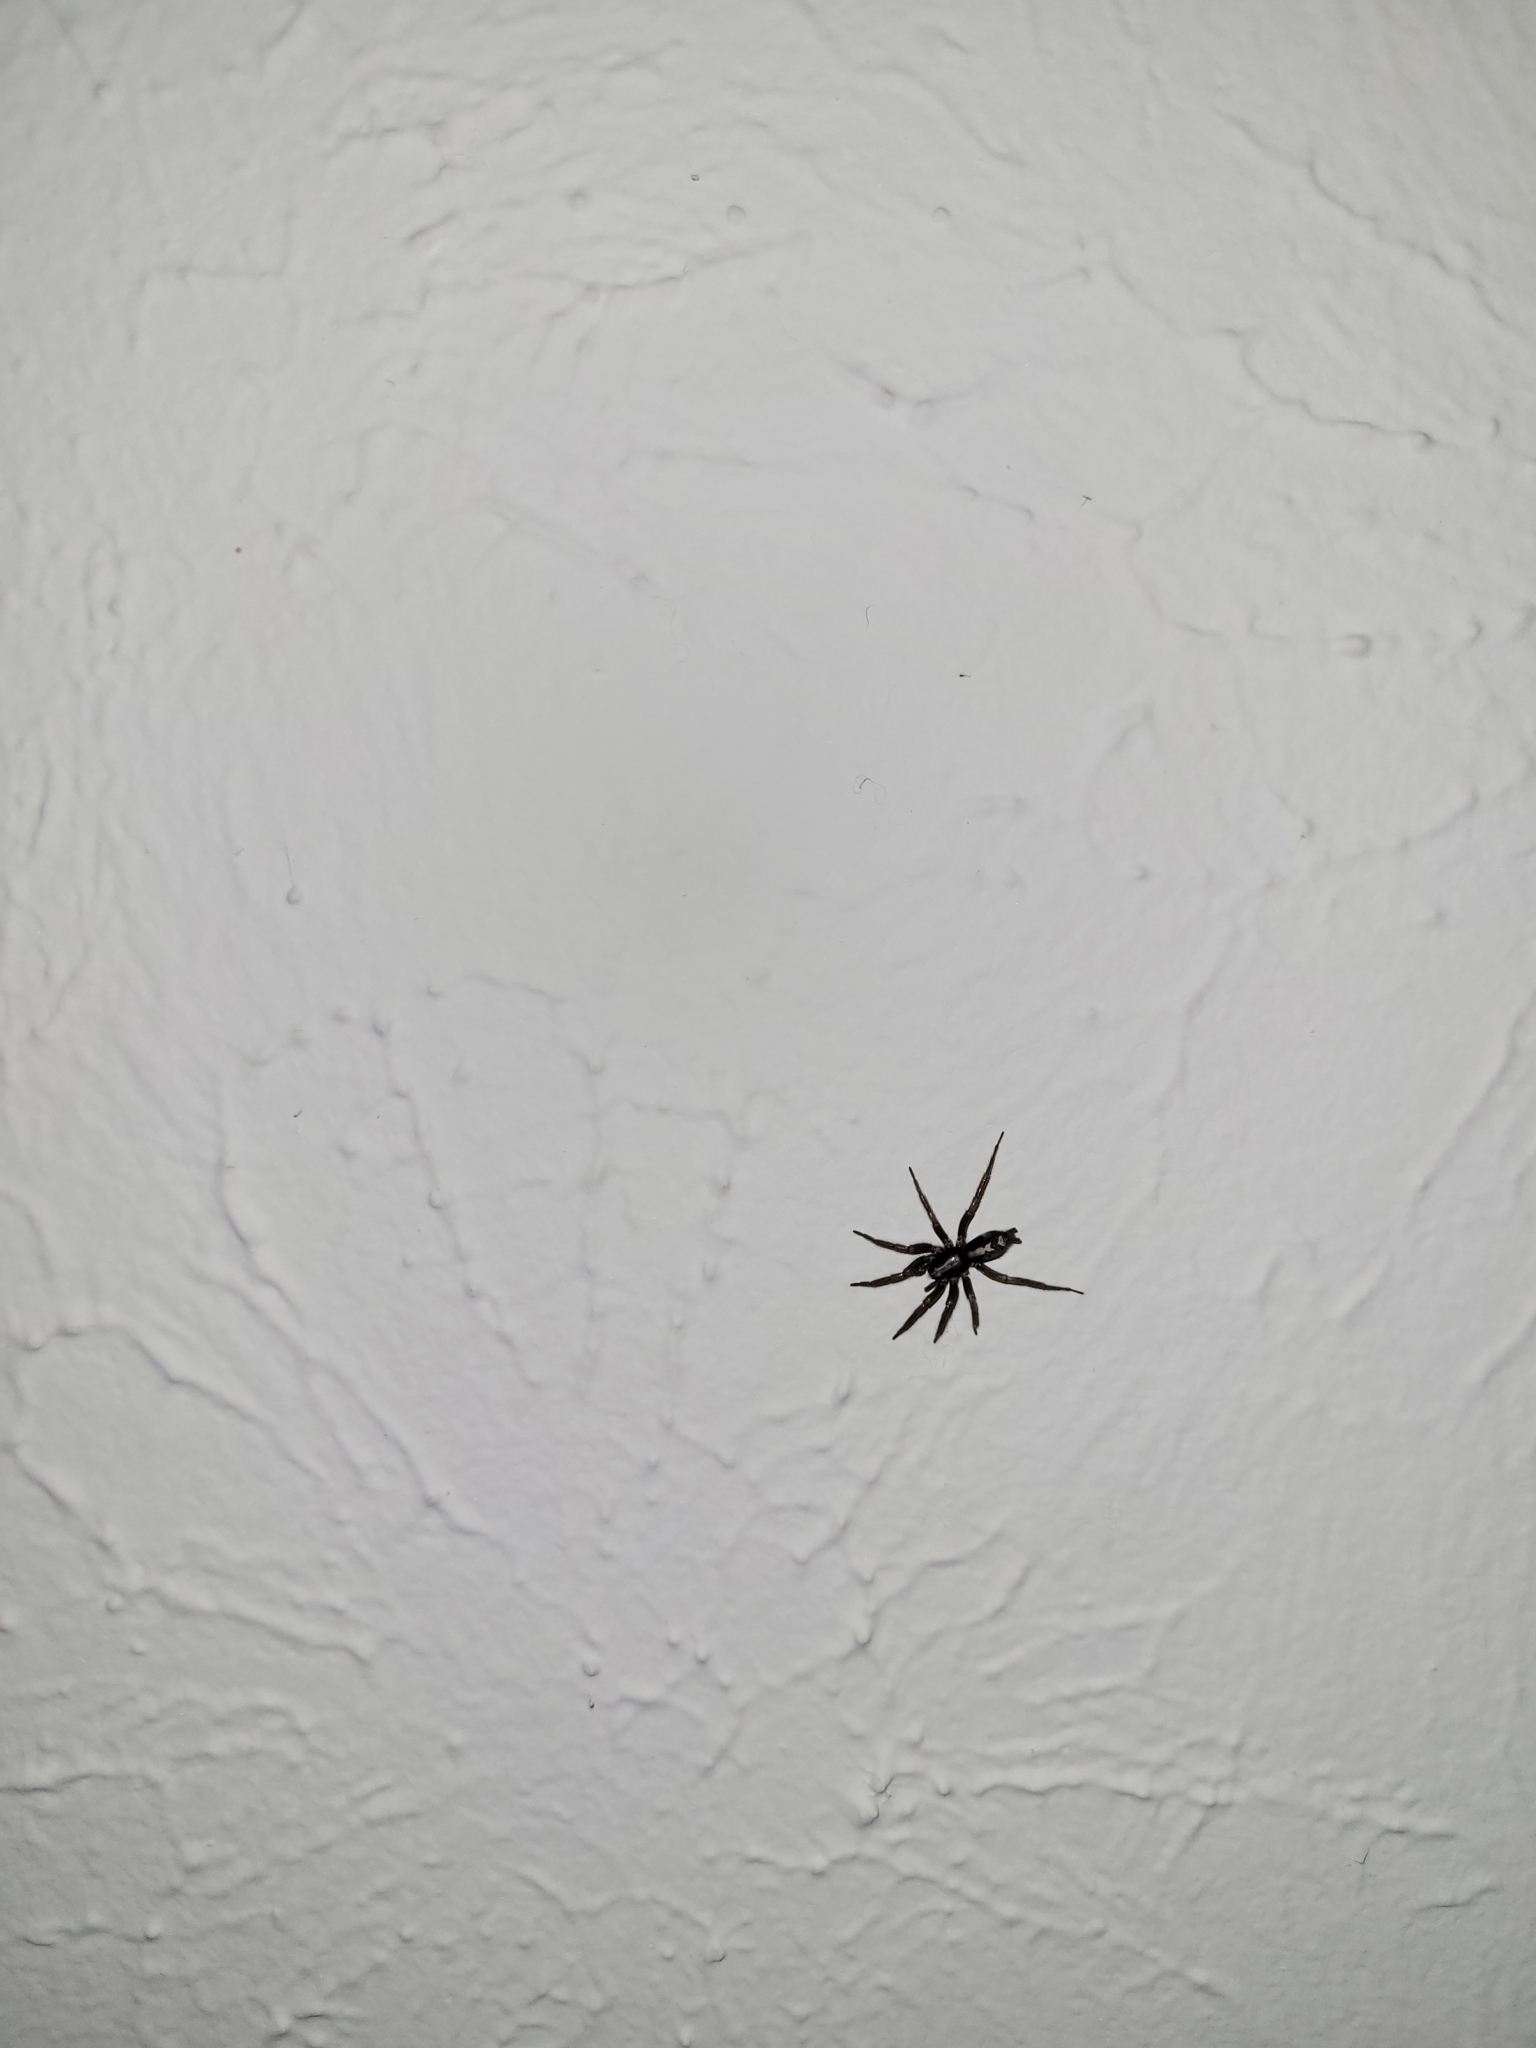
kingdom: Animalia
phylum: Arthropoda
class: Arachnida
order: Araneae
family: Gnaphosidae
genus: Herpyllus
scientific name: Herpyllus ecclesiasticus
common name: Eastern parson spider
